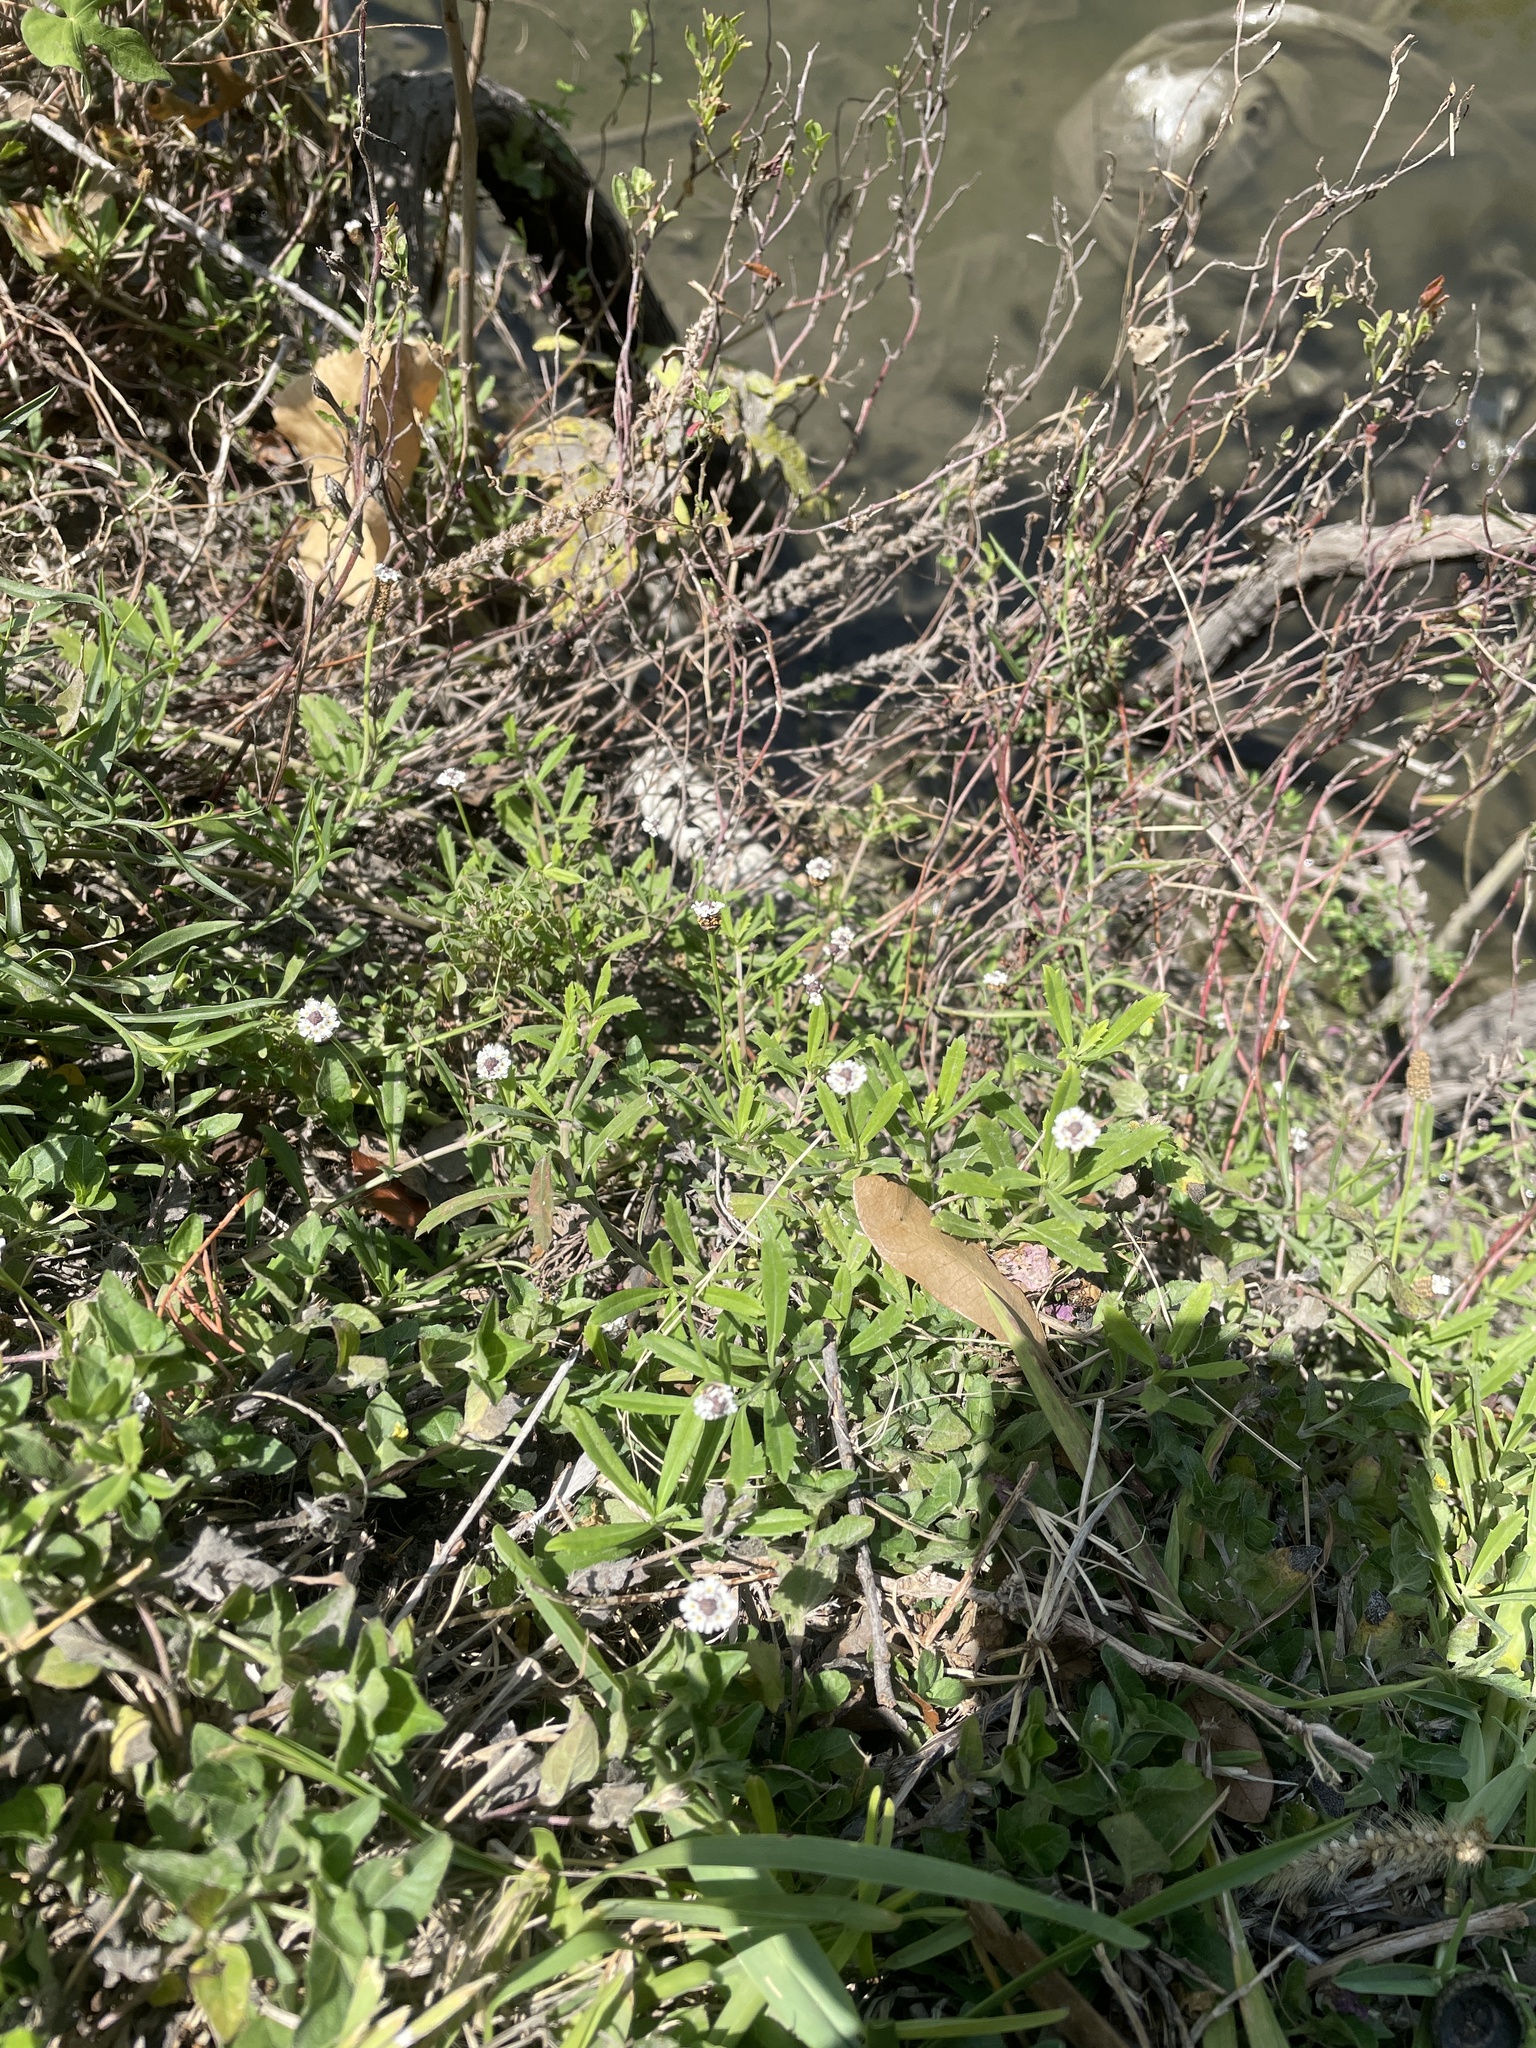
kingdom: Plantae
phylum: Tracheophyta
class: Magnoliopsida
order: Lamiales
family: Verbenaceae
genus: Phyla
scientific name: Phyla nodiflora
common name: Frogfruit
